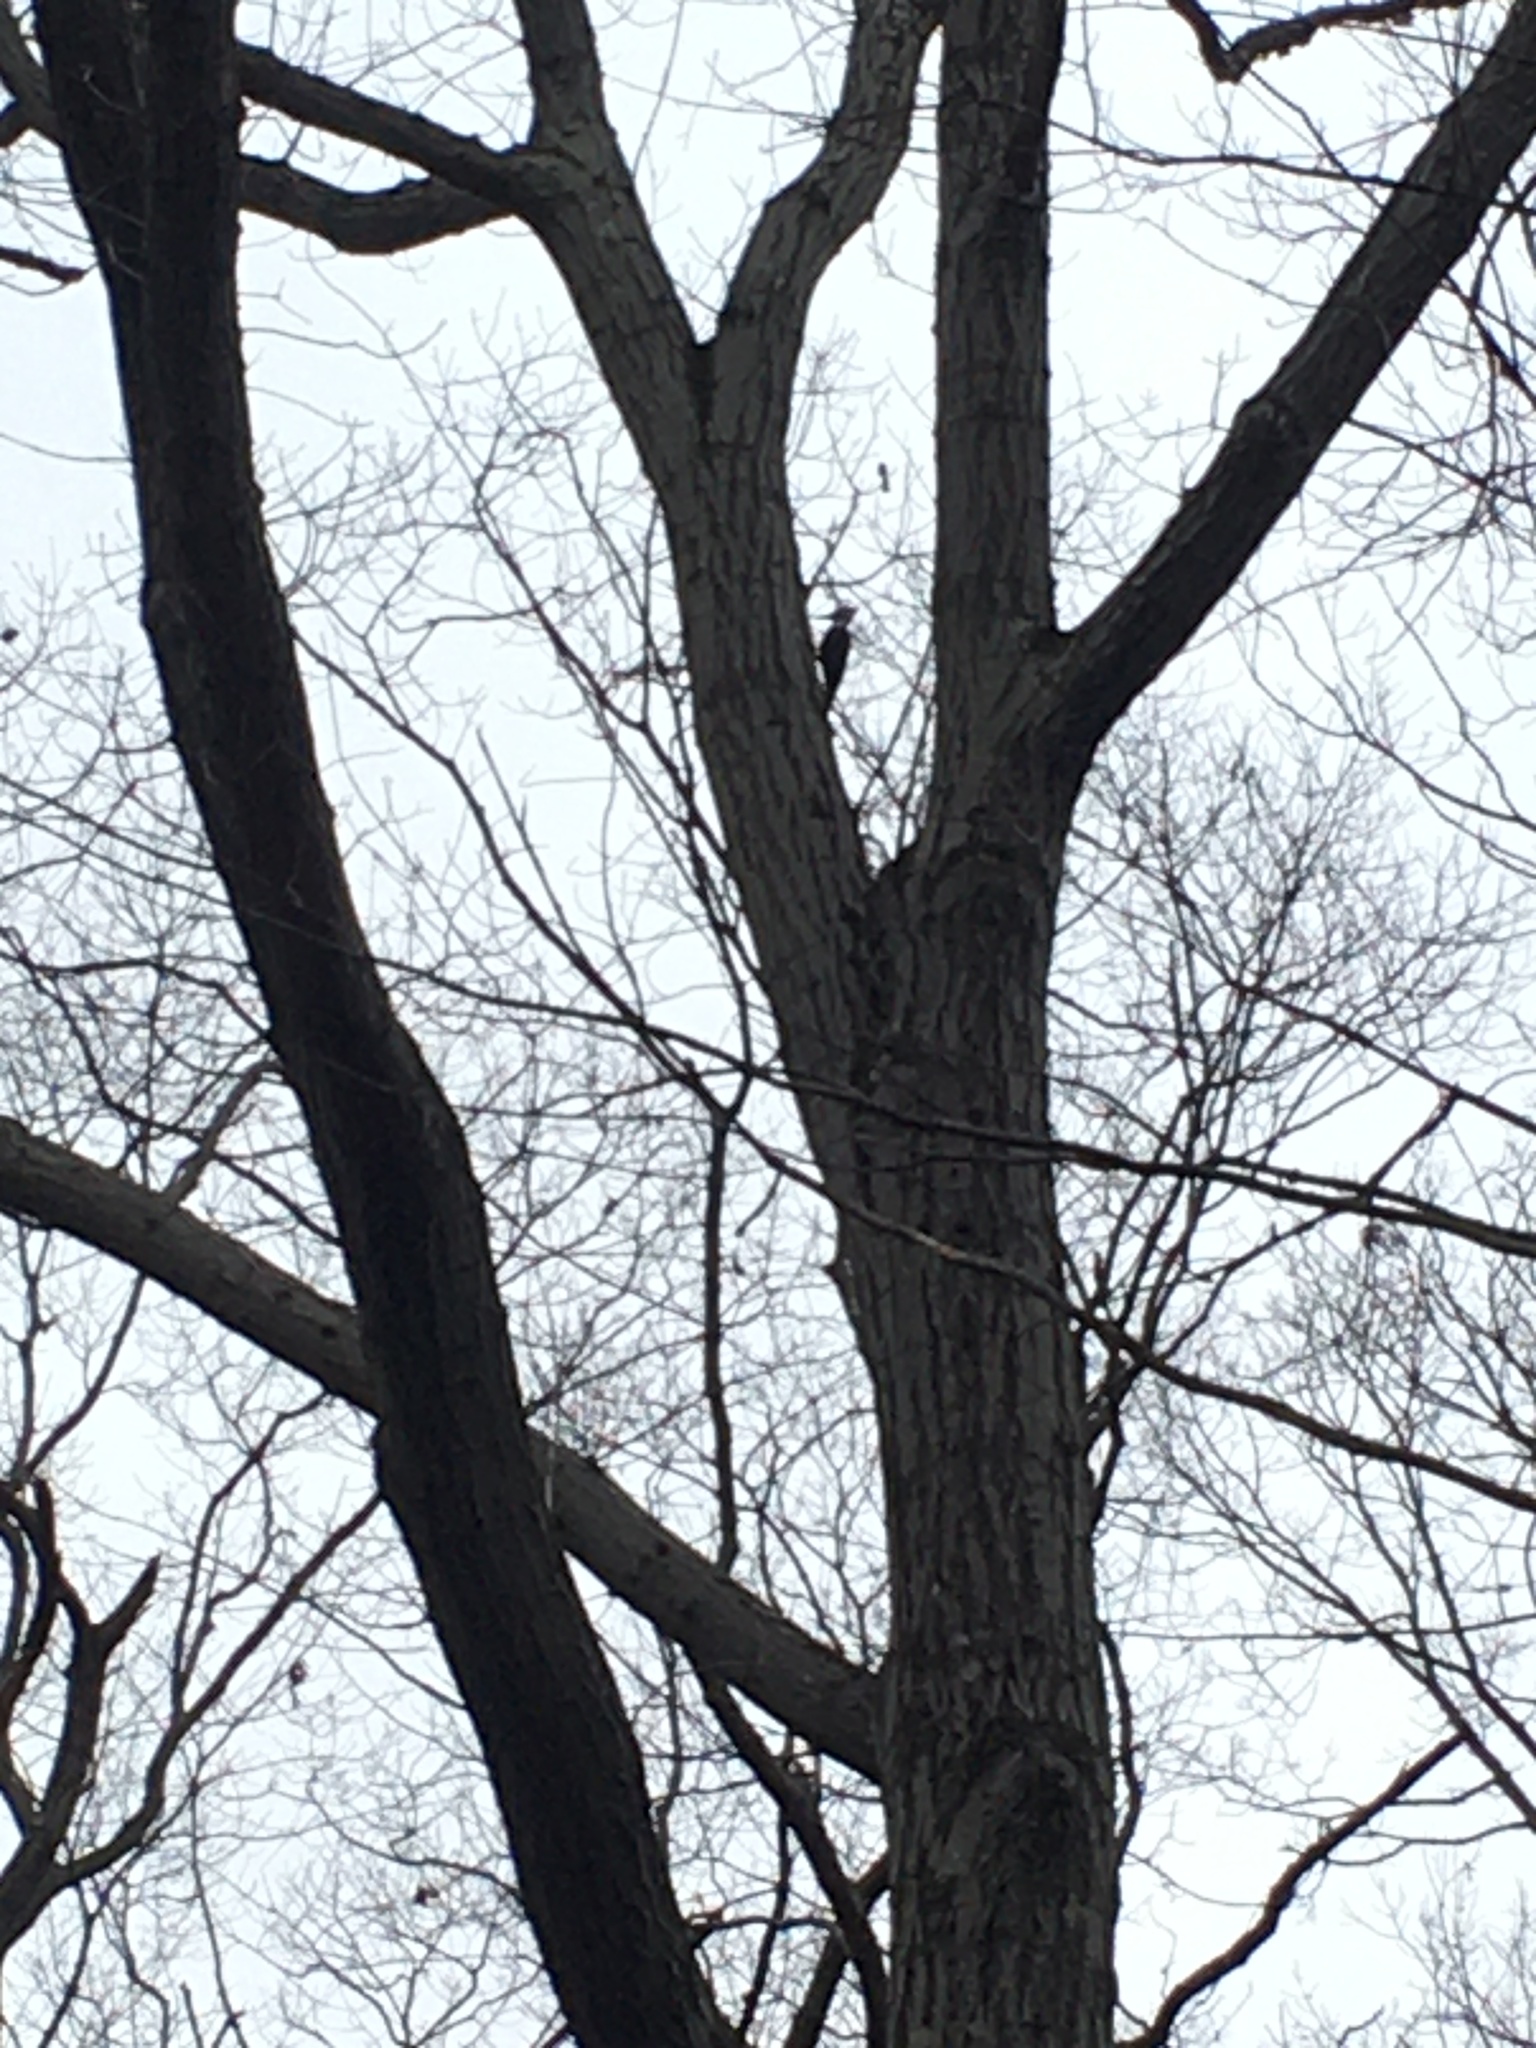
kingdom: Animalia
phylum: Chordata
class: Aves
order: Piciformes
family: Picidae
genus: Dryocopus
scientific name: Dryocopus pileatus
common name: Pileated woodpecker
